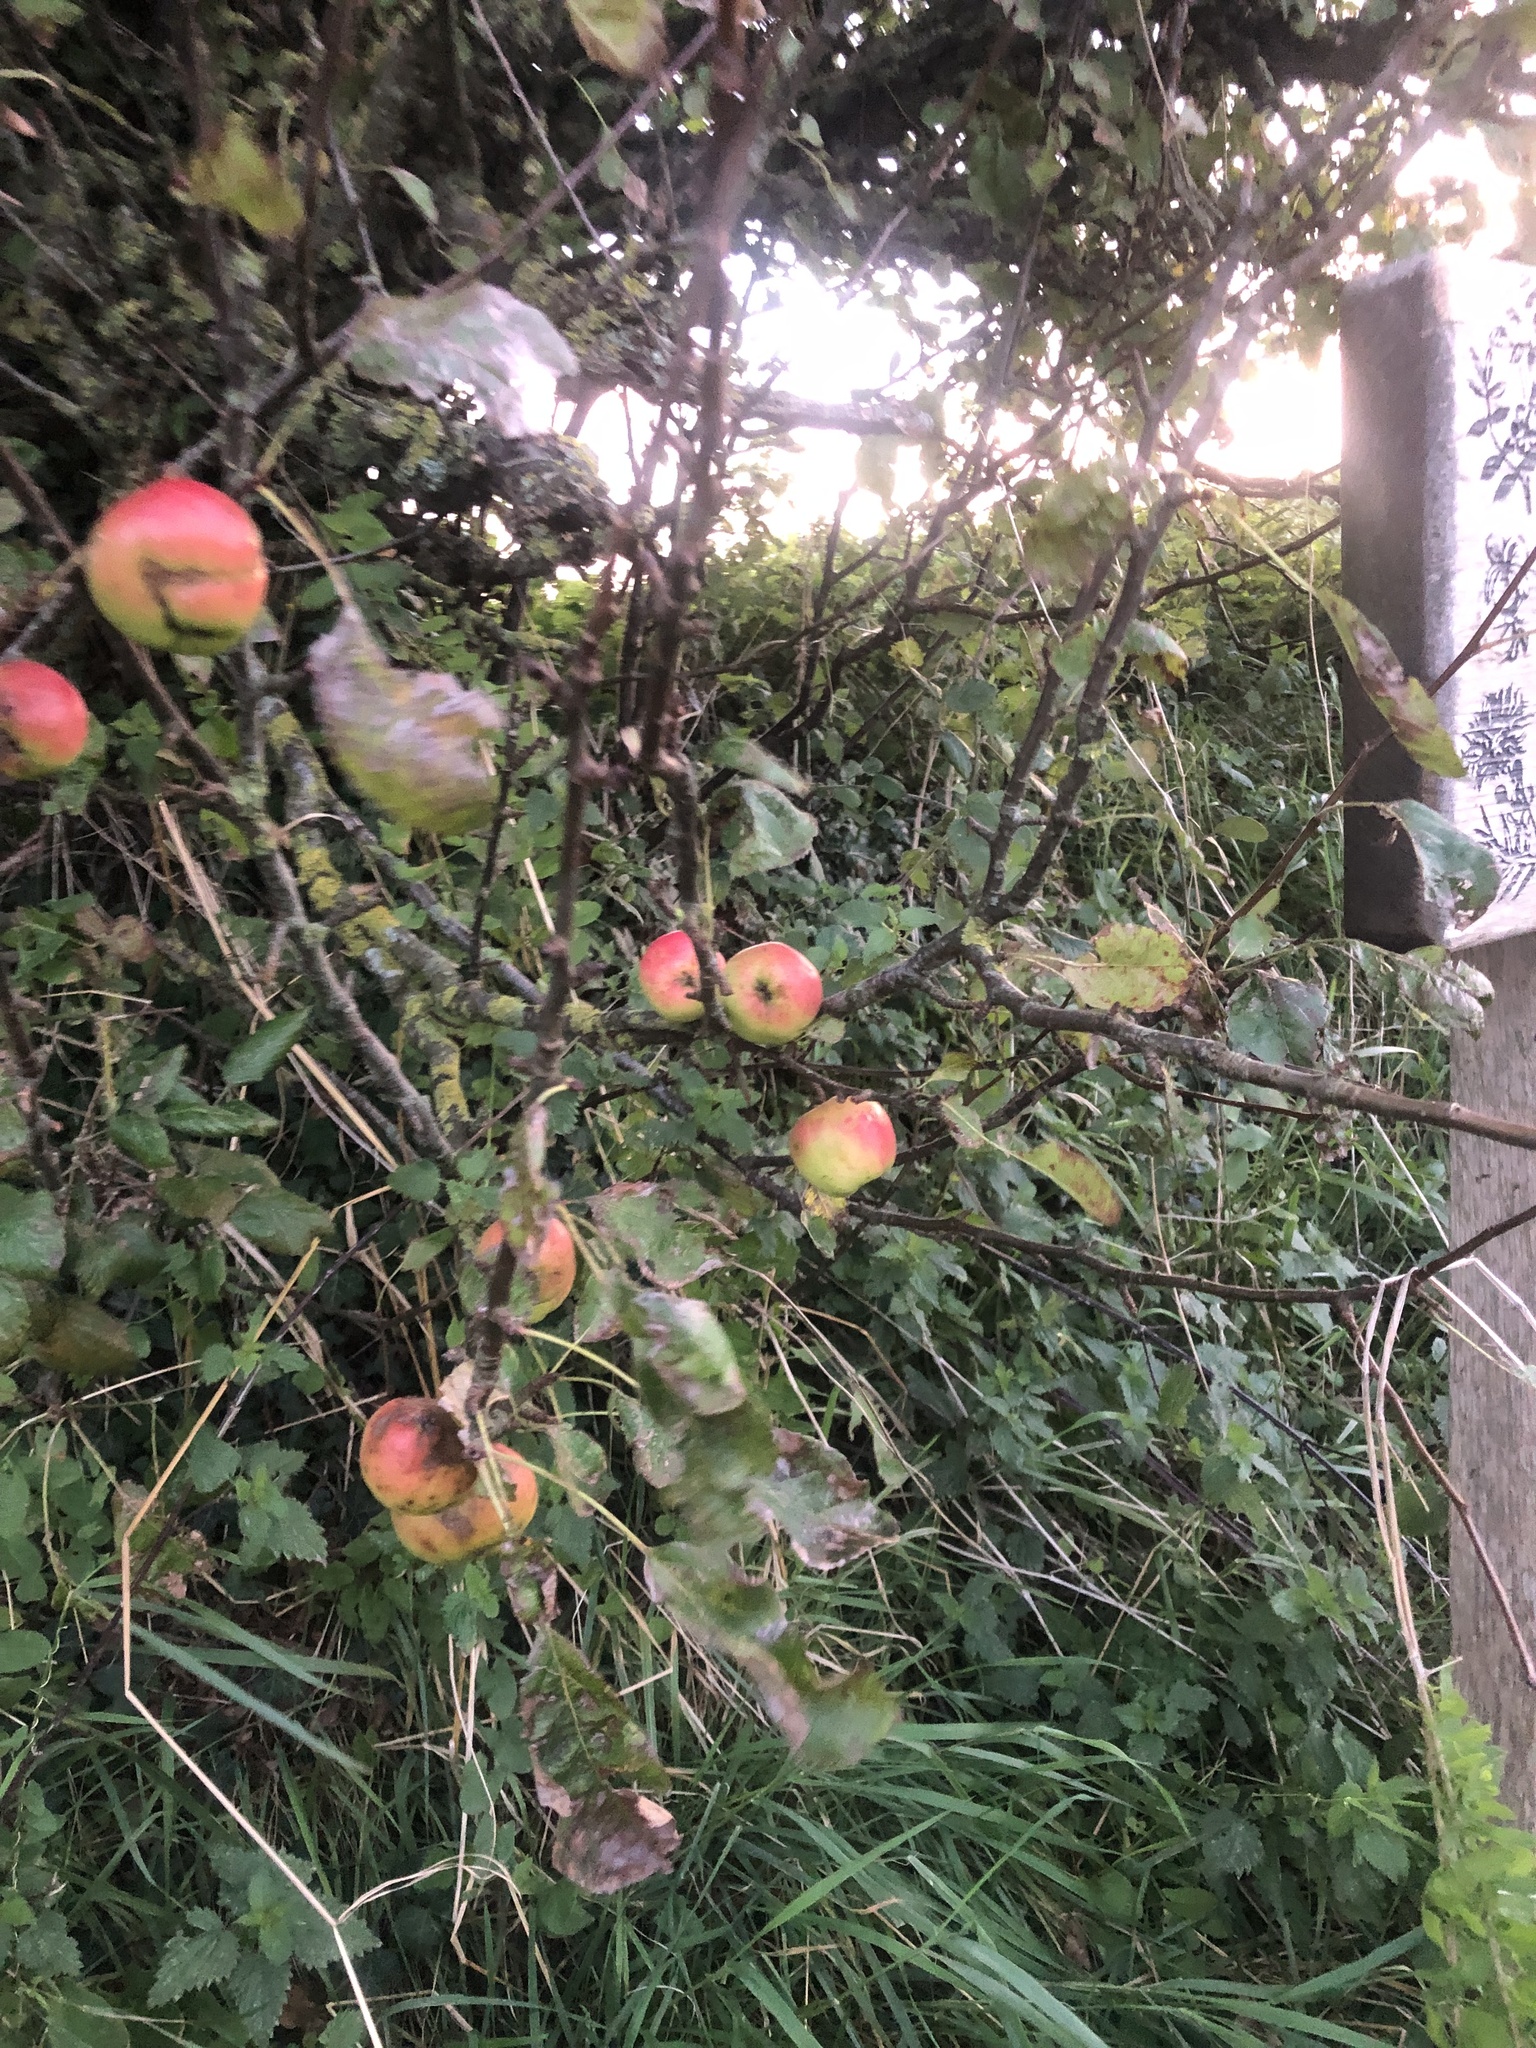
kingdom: Plantae
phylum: Tracheophyta
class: Magnoliopsida
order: Rosales
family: Rosaceae
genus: Malus
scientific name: Malus domestica
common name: Apple
